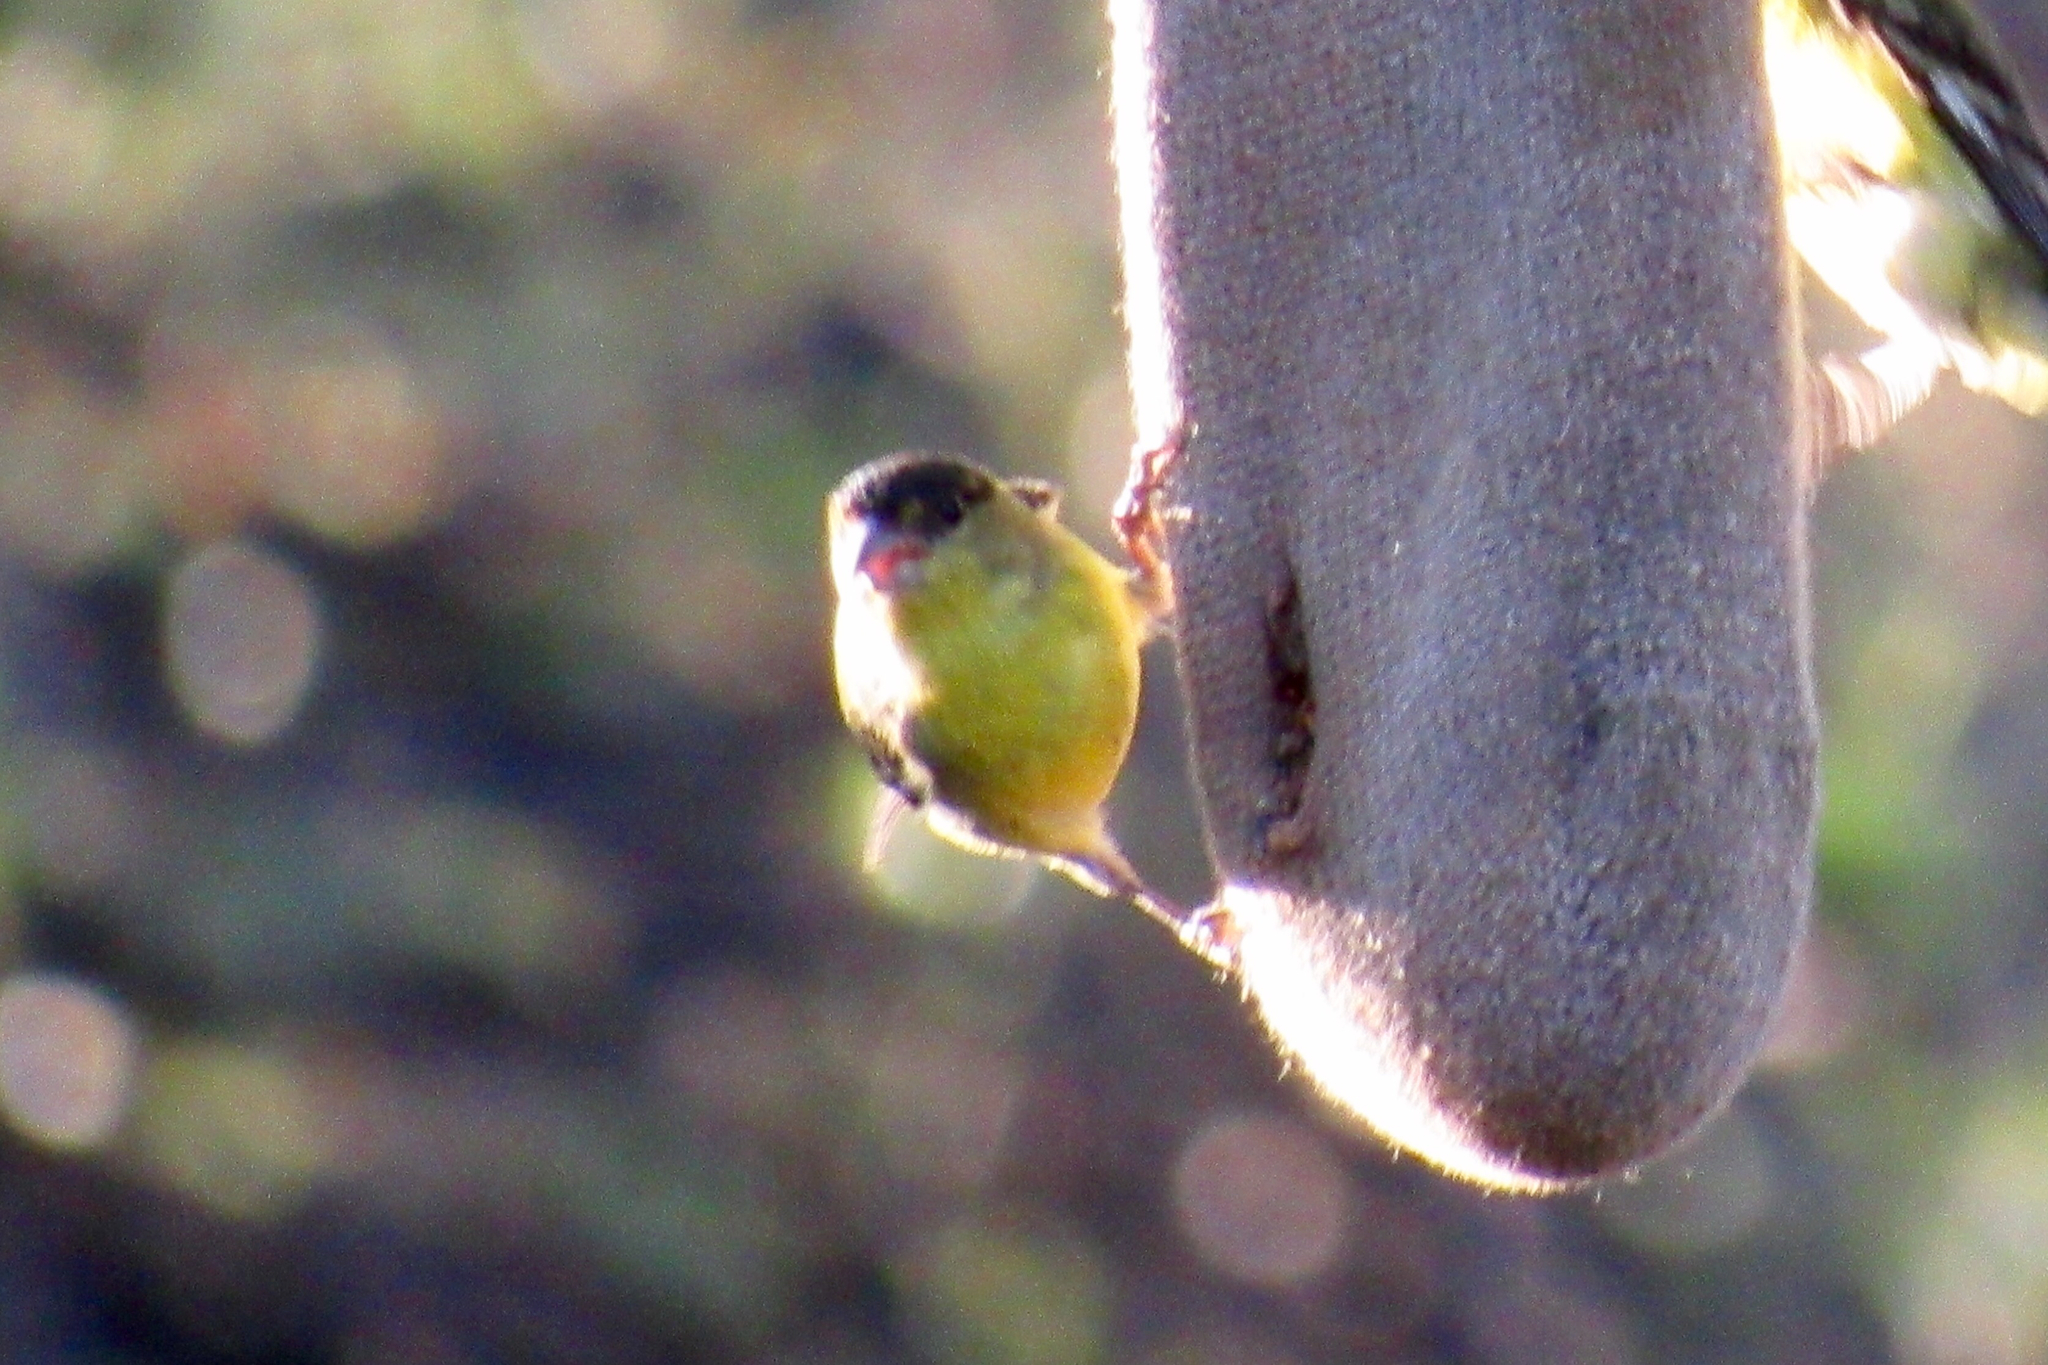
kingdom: Animalia
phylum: Chordata
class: Aves
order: Passeriformes
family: Fringillidae
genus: Spinus
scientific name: Spinus psaltria
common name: Lesser goldfinch
